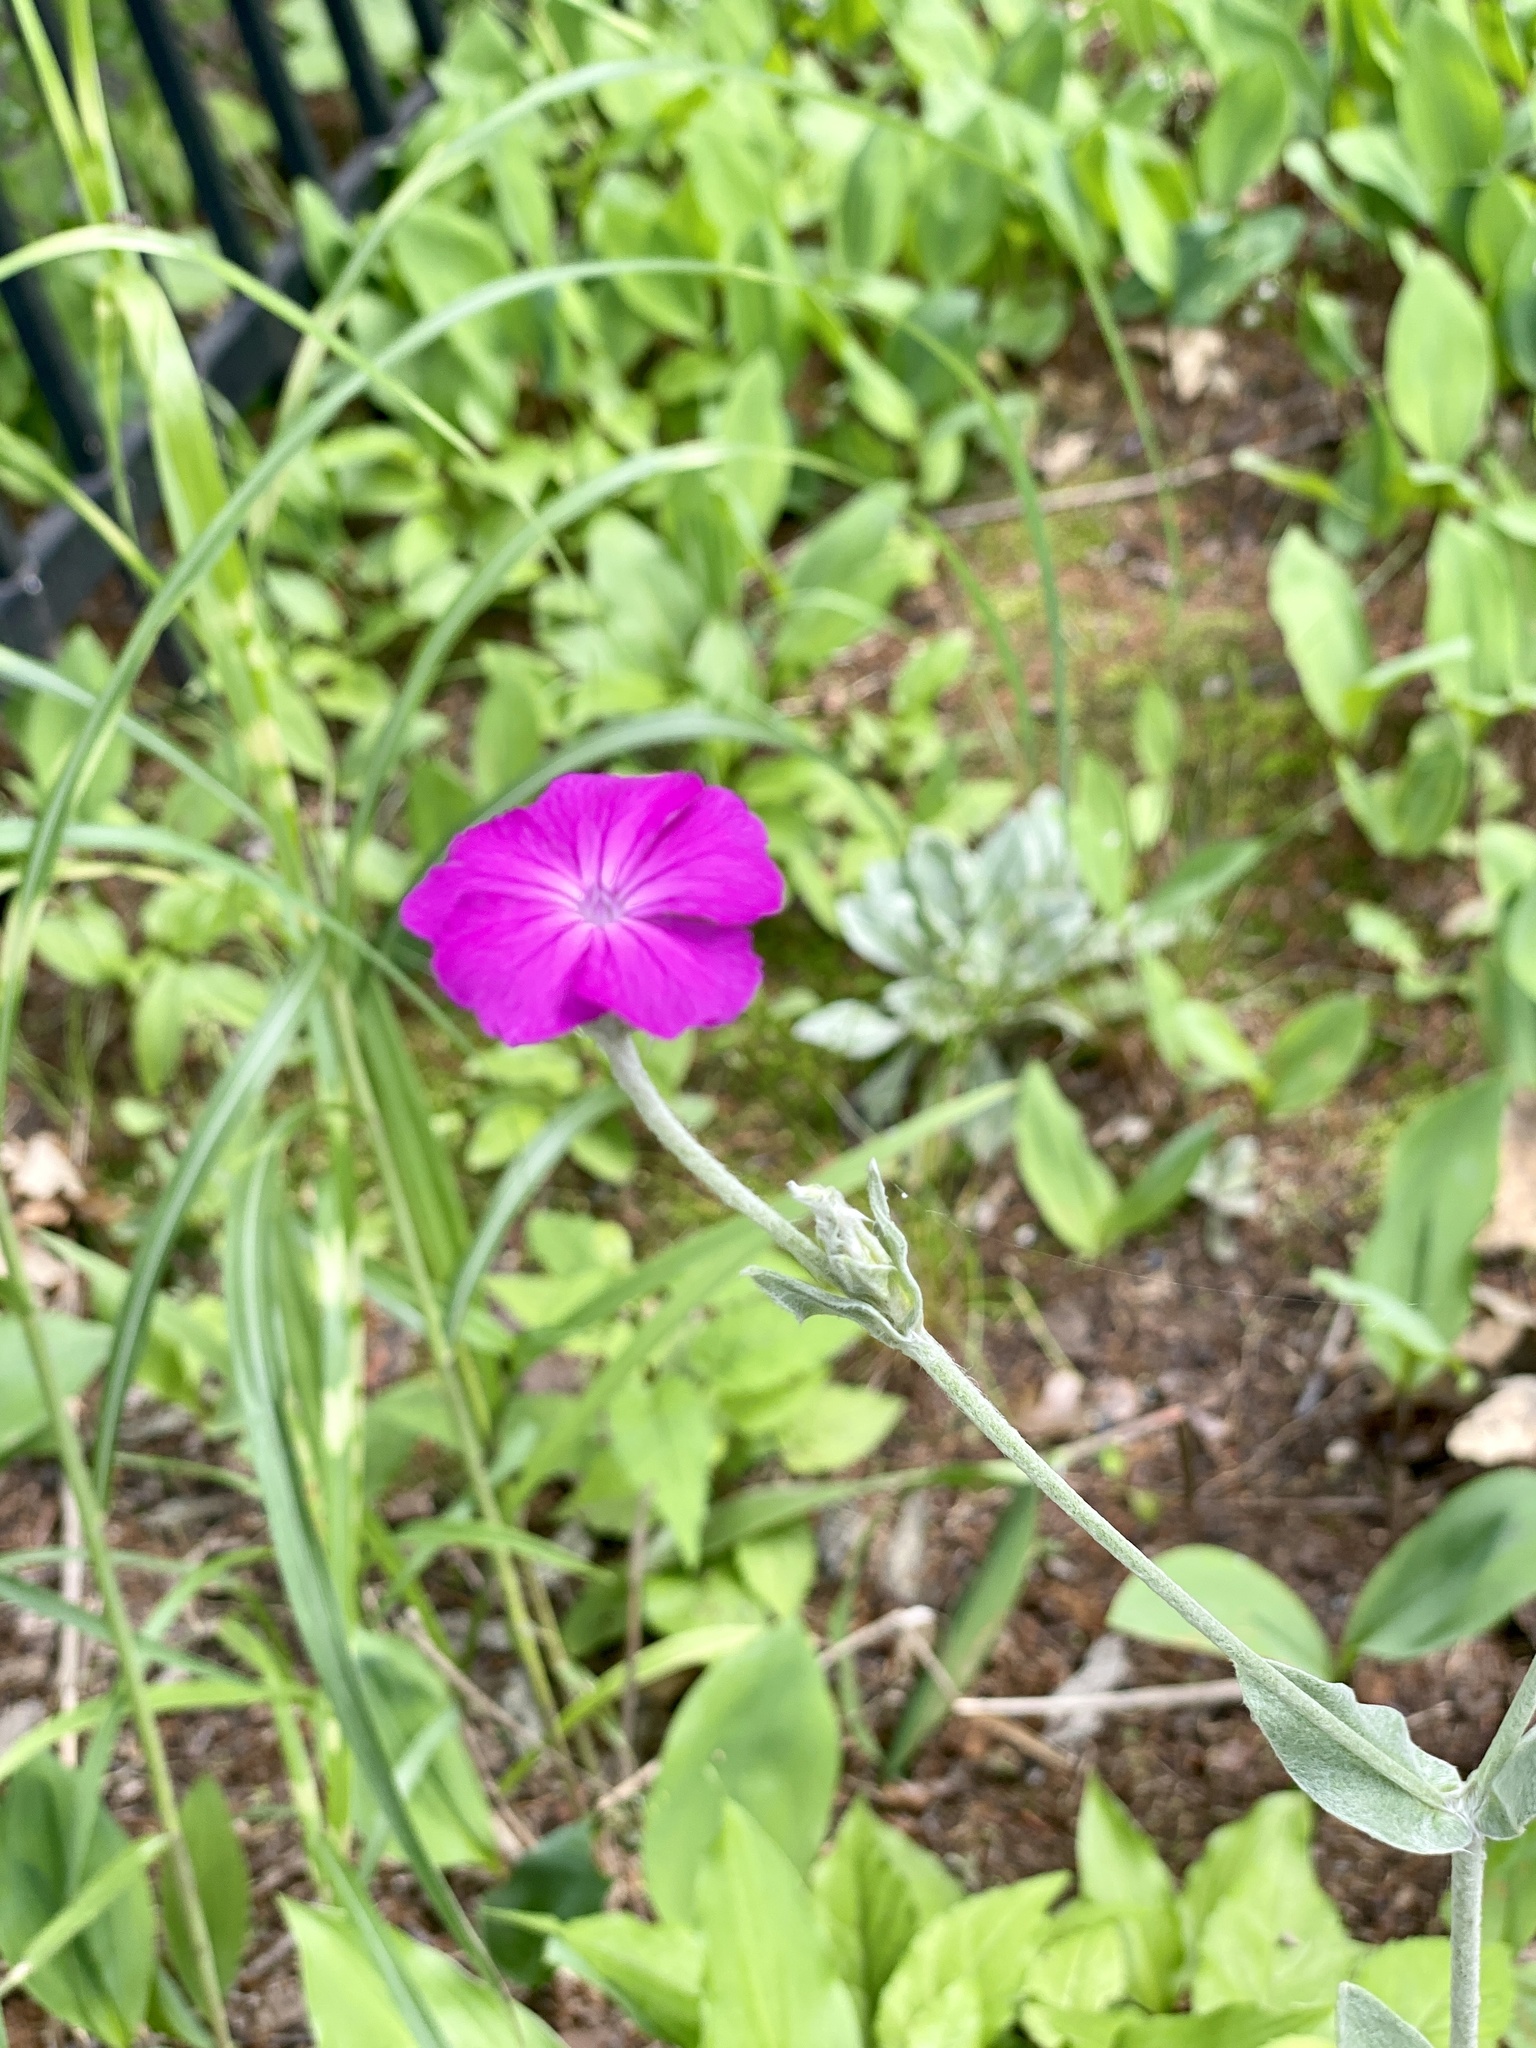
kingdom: Plantae
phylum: Tracheophyta
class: Magnoliopsida
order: Caryophyllales
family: Caryophyllaceae
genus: Silene
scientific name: Silene coronaria
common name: Rose campion
